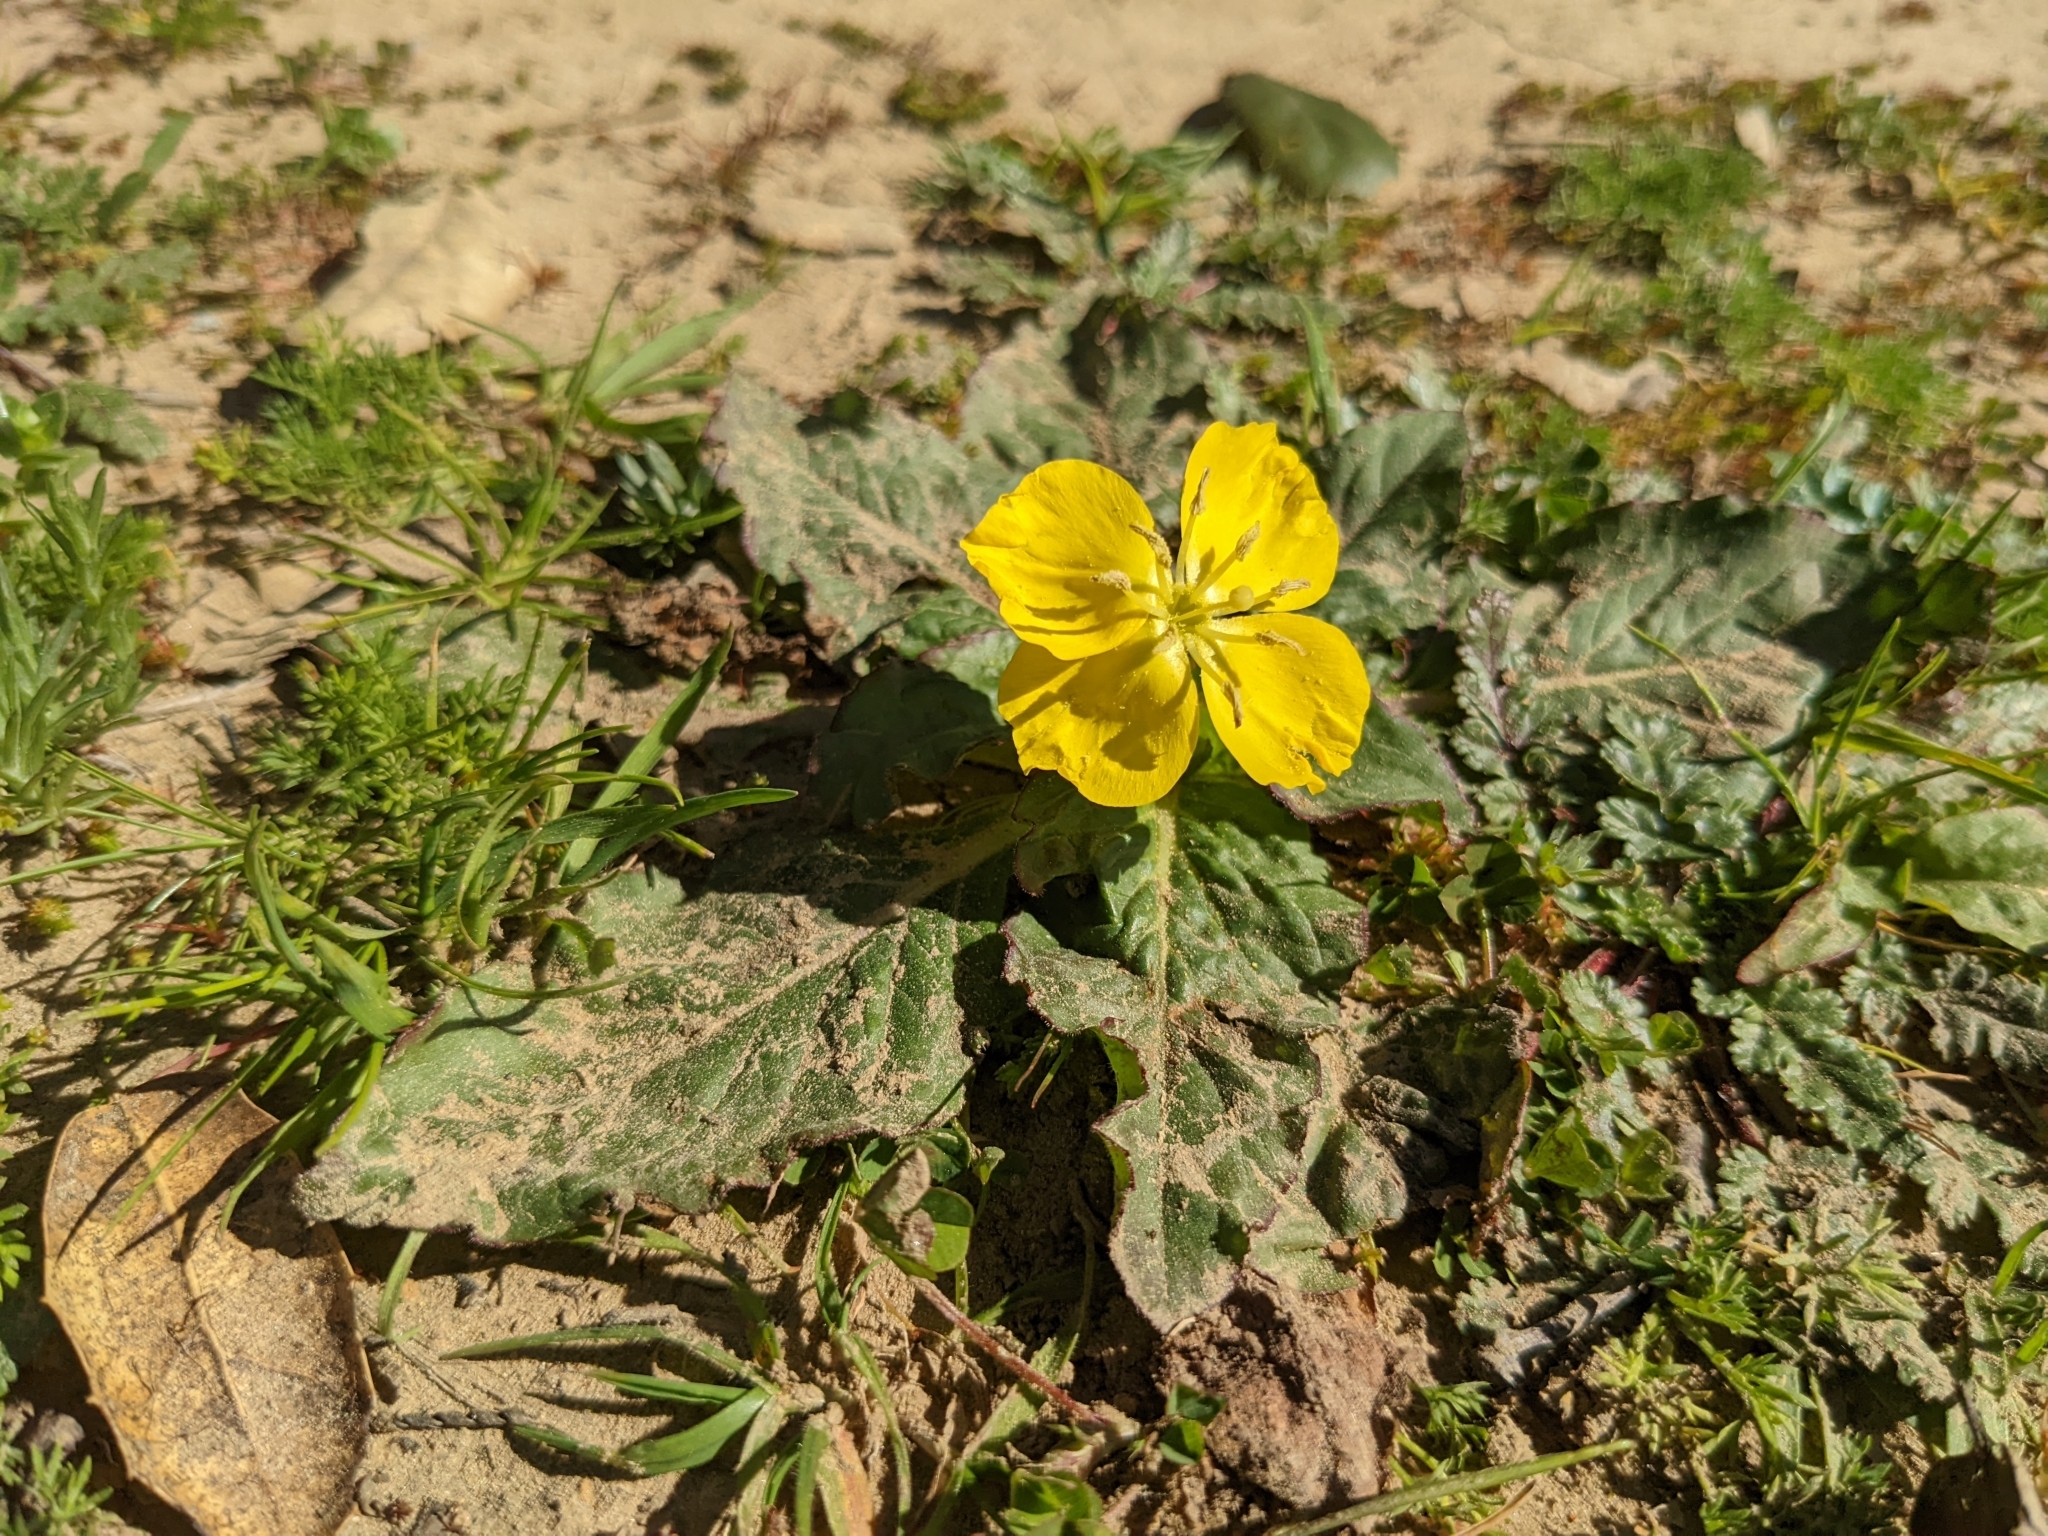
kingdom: Plantae
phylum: Tracheophyta
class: Magnoliopsida
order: Myrtales
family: Onagraceae
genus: Taraxia
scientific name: Taraxia ovata
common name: Goldeneggs
